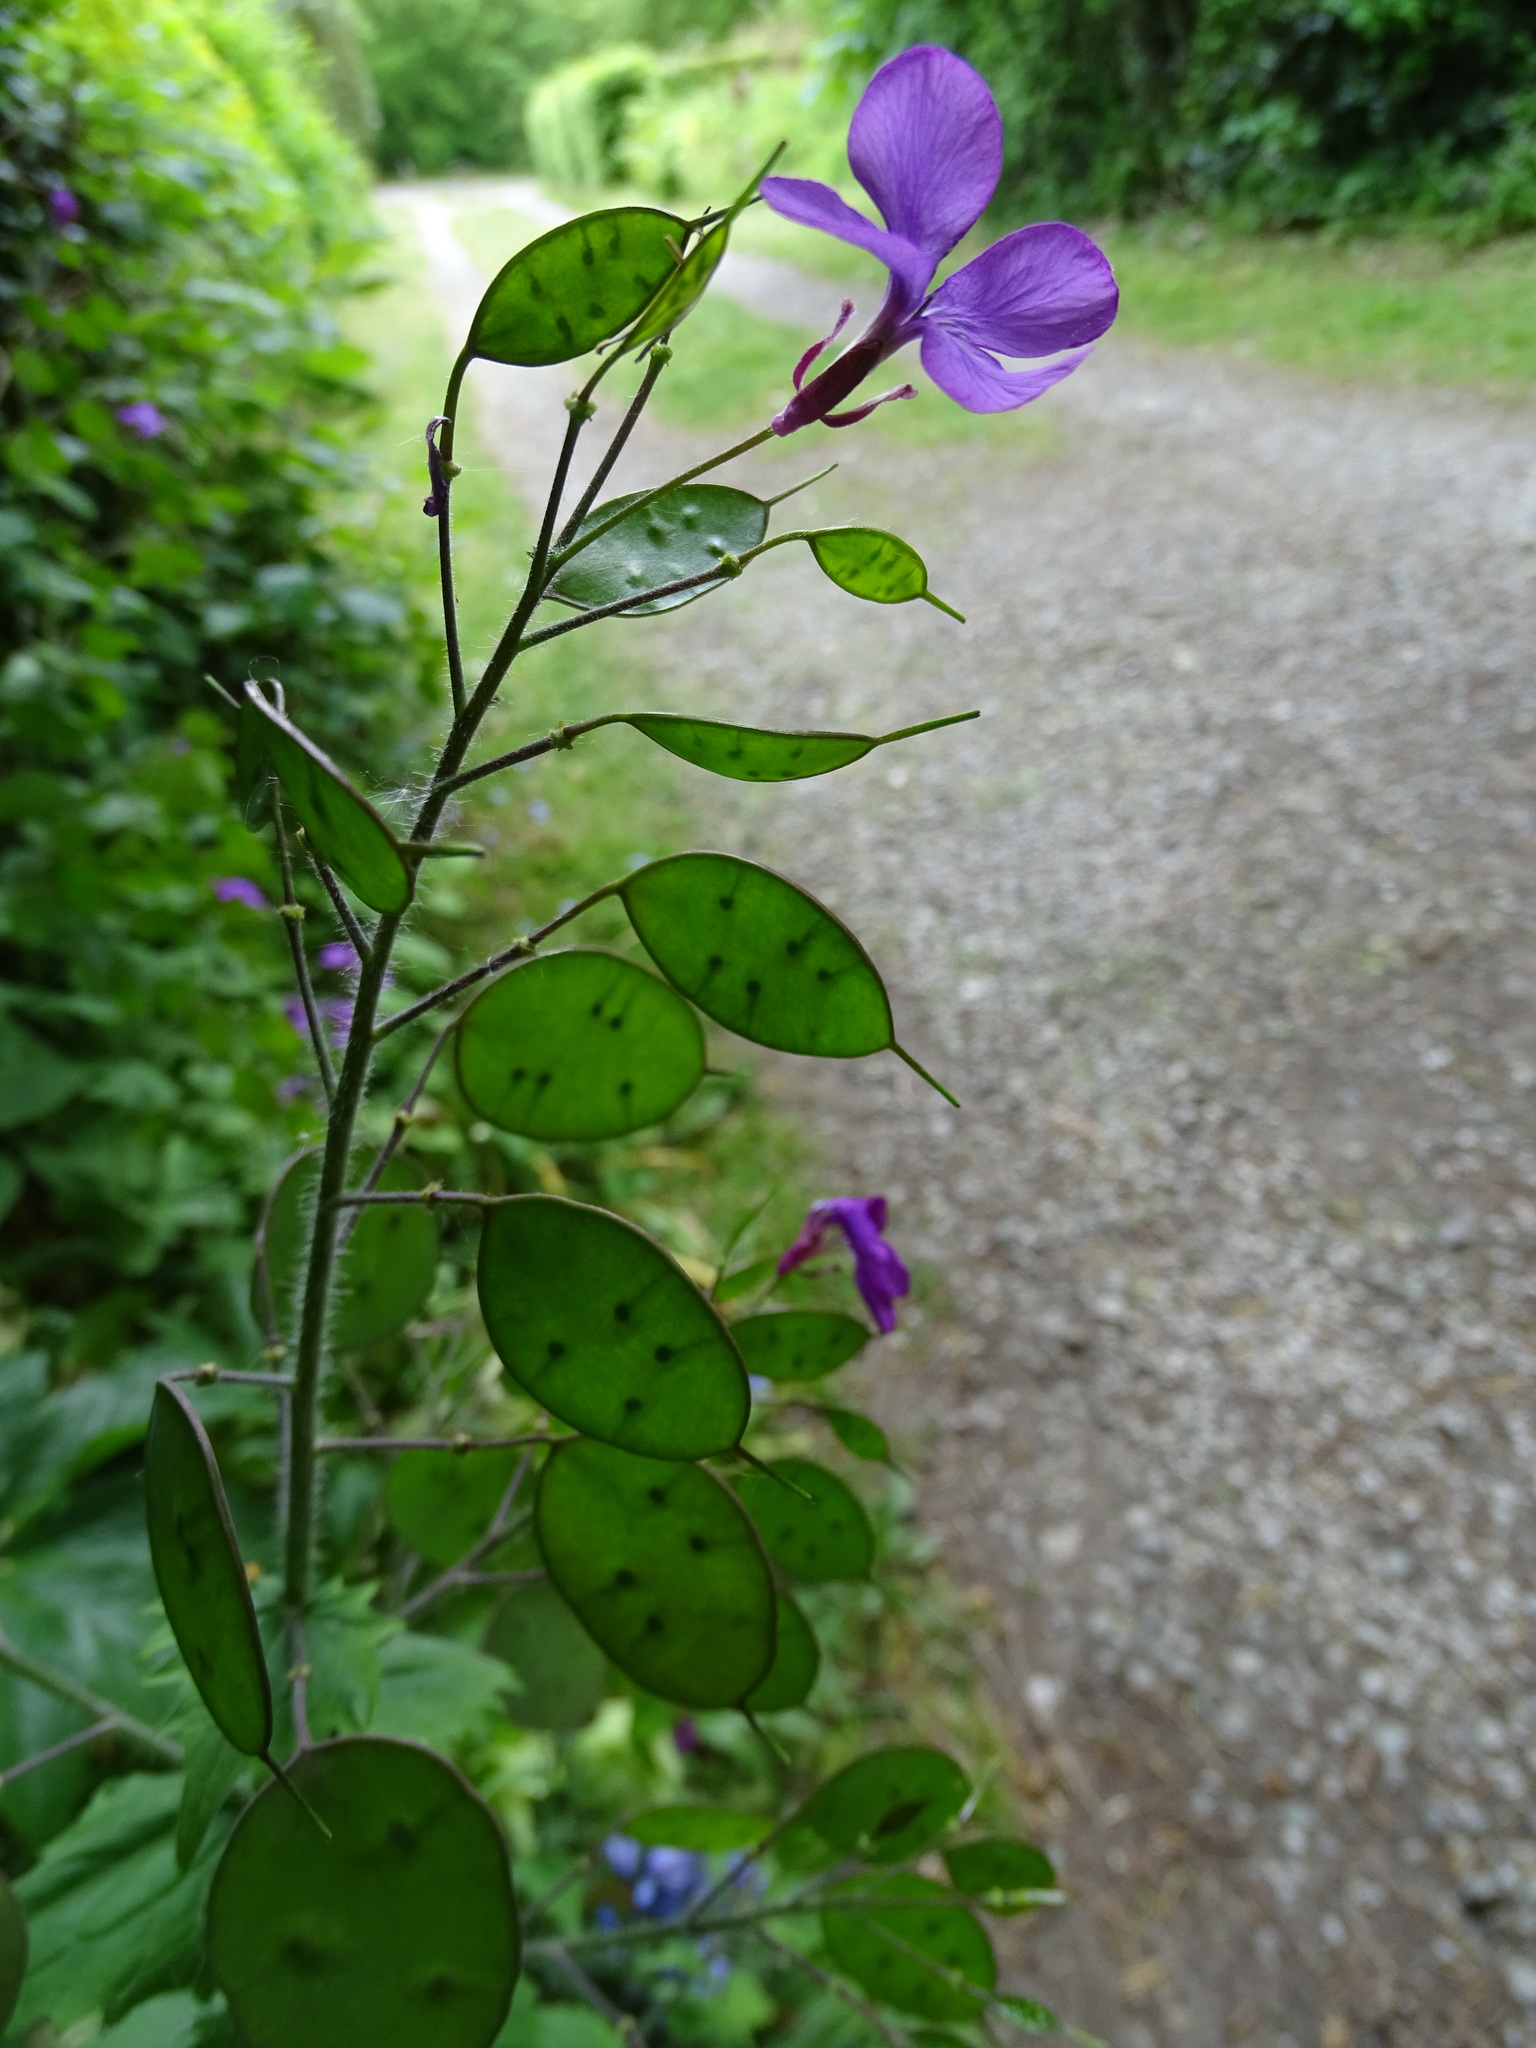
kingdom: Plantae
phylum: Tracheophyta
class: Magnoliopsida
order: Brassicales
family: Brassicaceae
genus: Lunaria
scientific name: Lunaria annua
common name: Honesty
